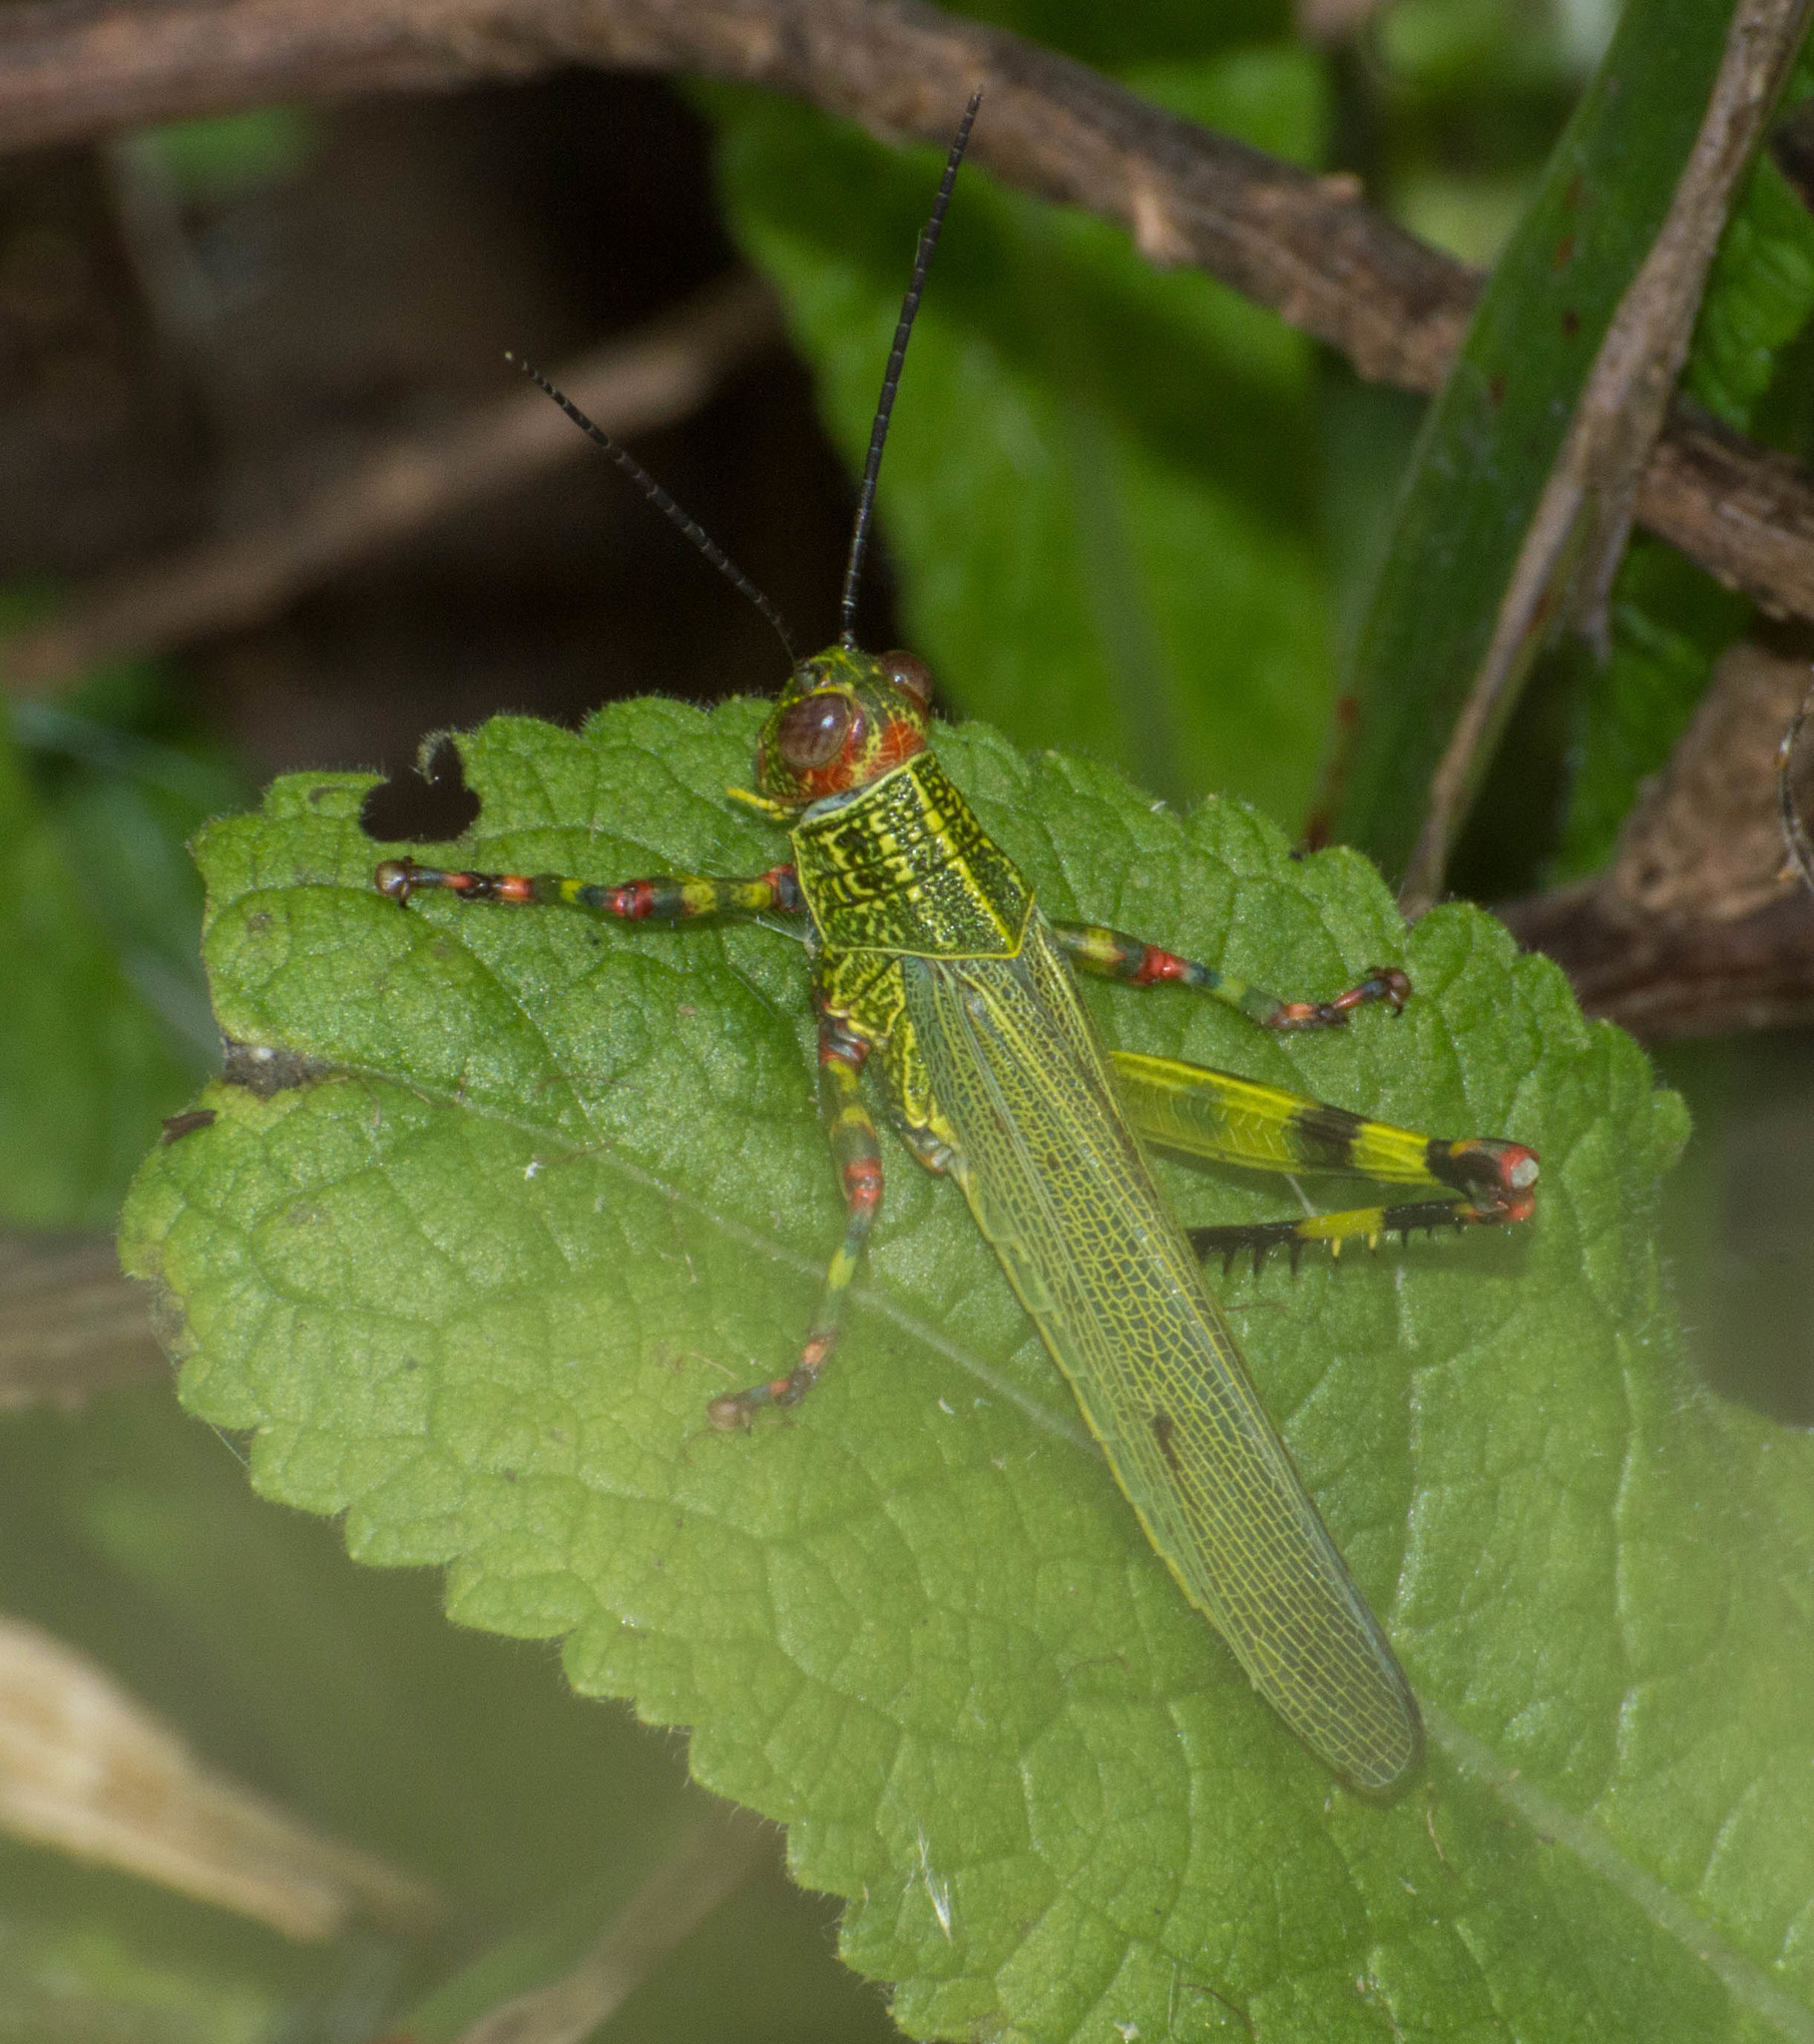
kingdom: Animalia
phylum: Arthropoda
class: Insecta
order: Orthoptera
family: Romaleidae
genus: Zoniopoda
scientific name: Zoniopoda tarsata
